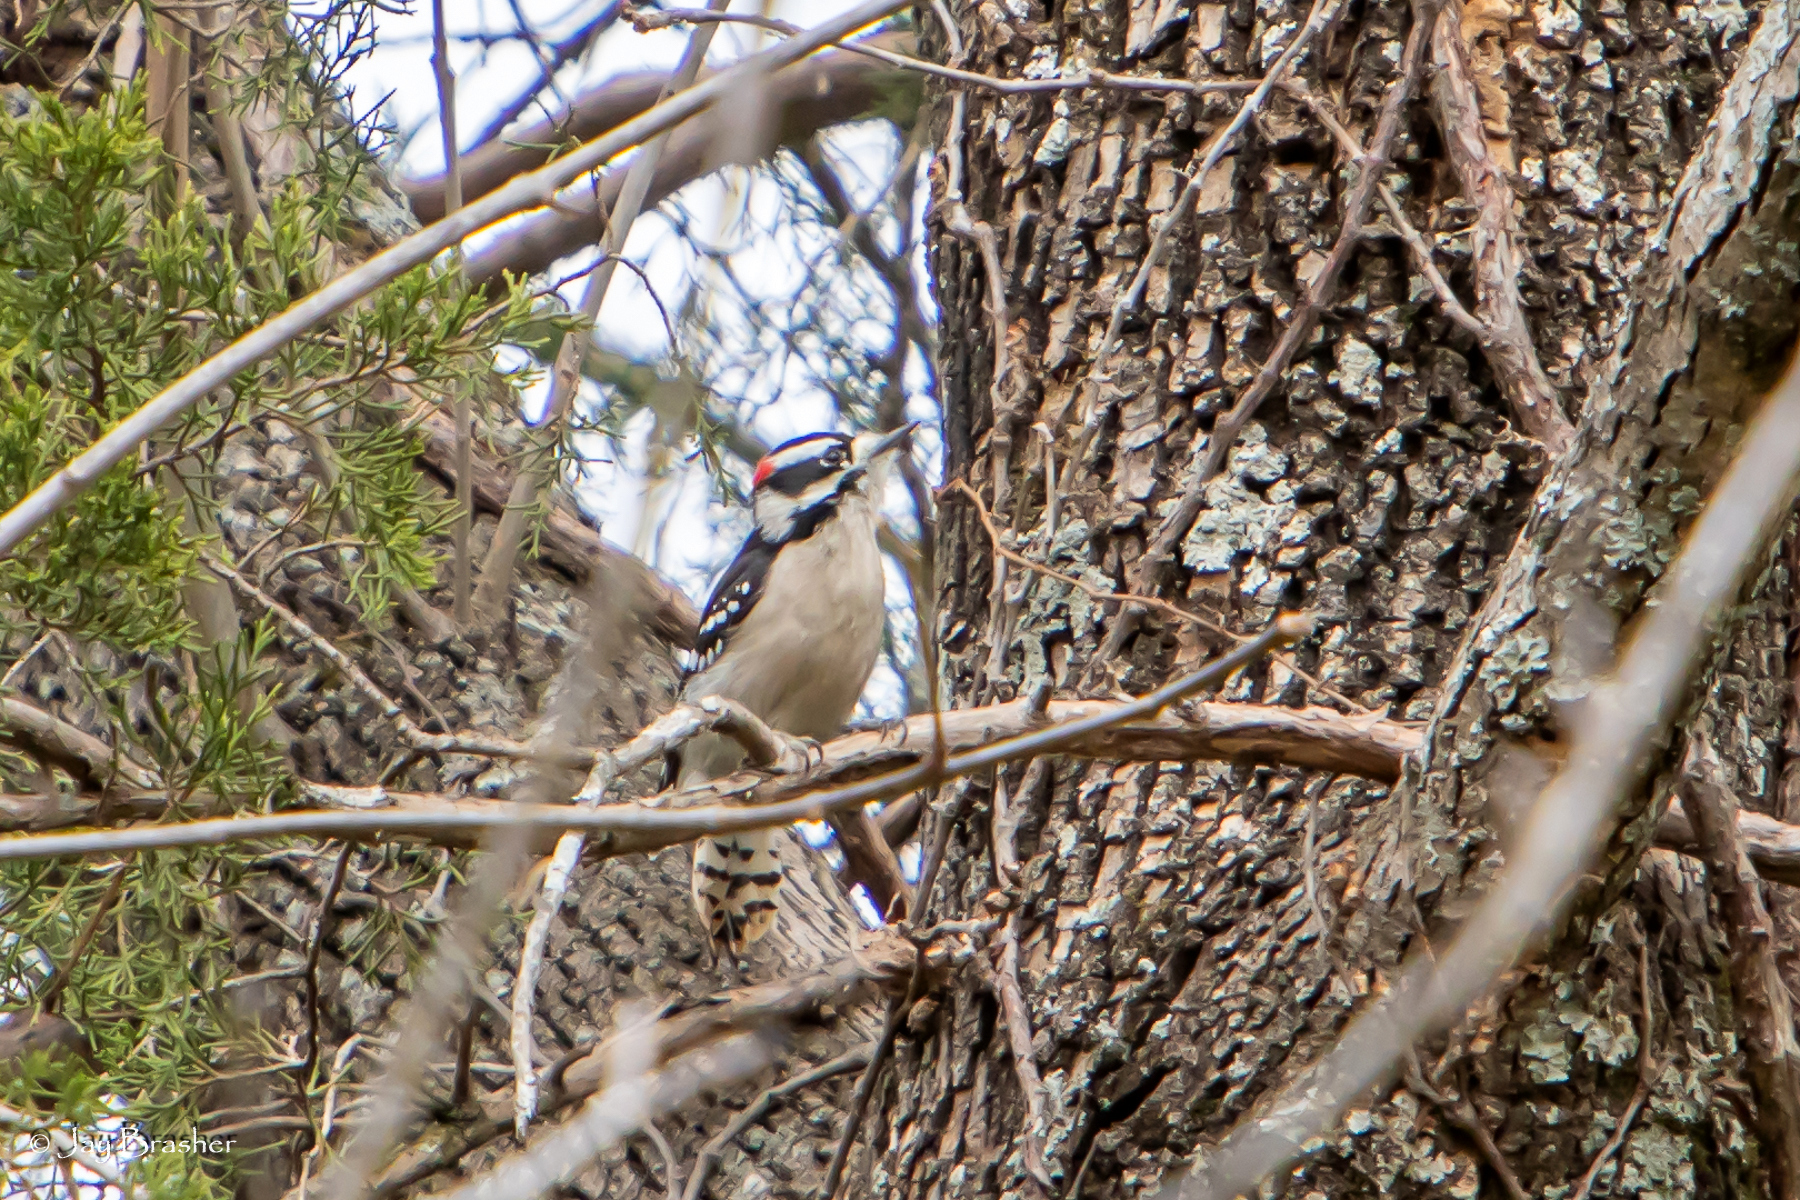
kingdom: Animalia
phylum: Chordata
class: Aves
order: Piciformes
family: Picidae
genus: Dryobates
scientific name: Dryobates pubescens
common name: Downy woodpecker
